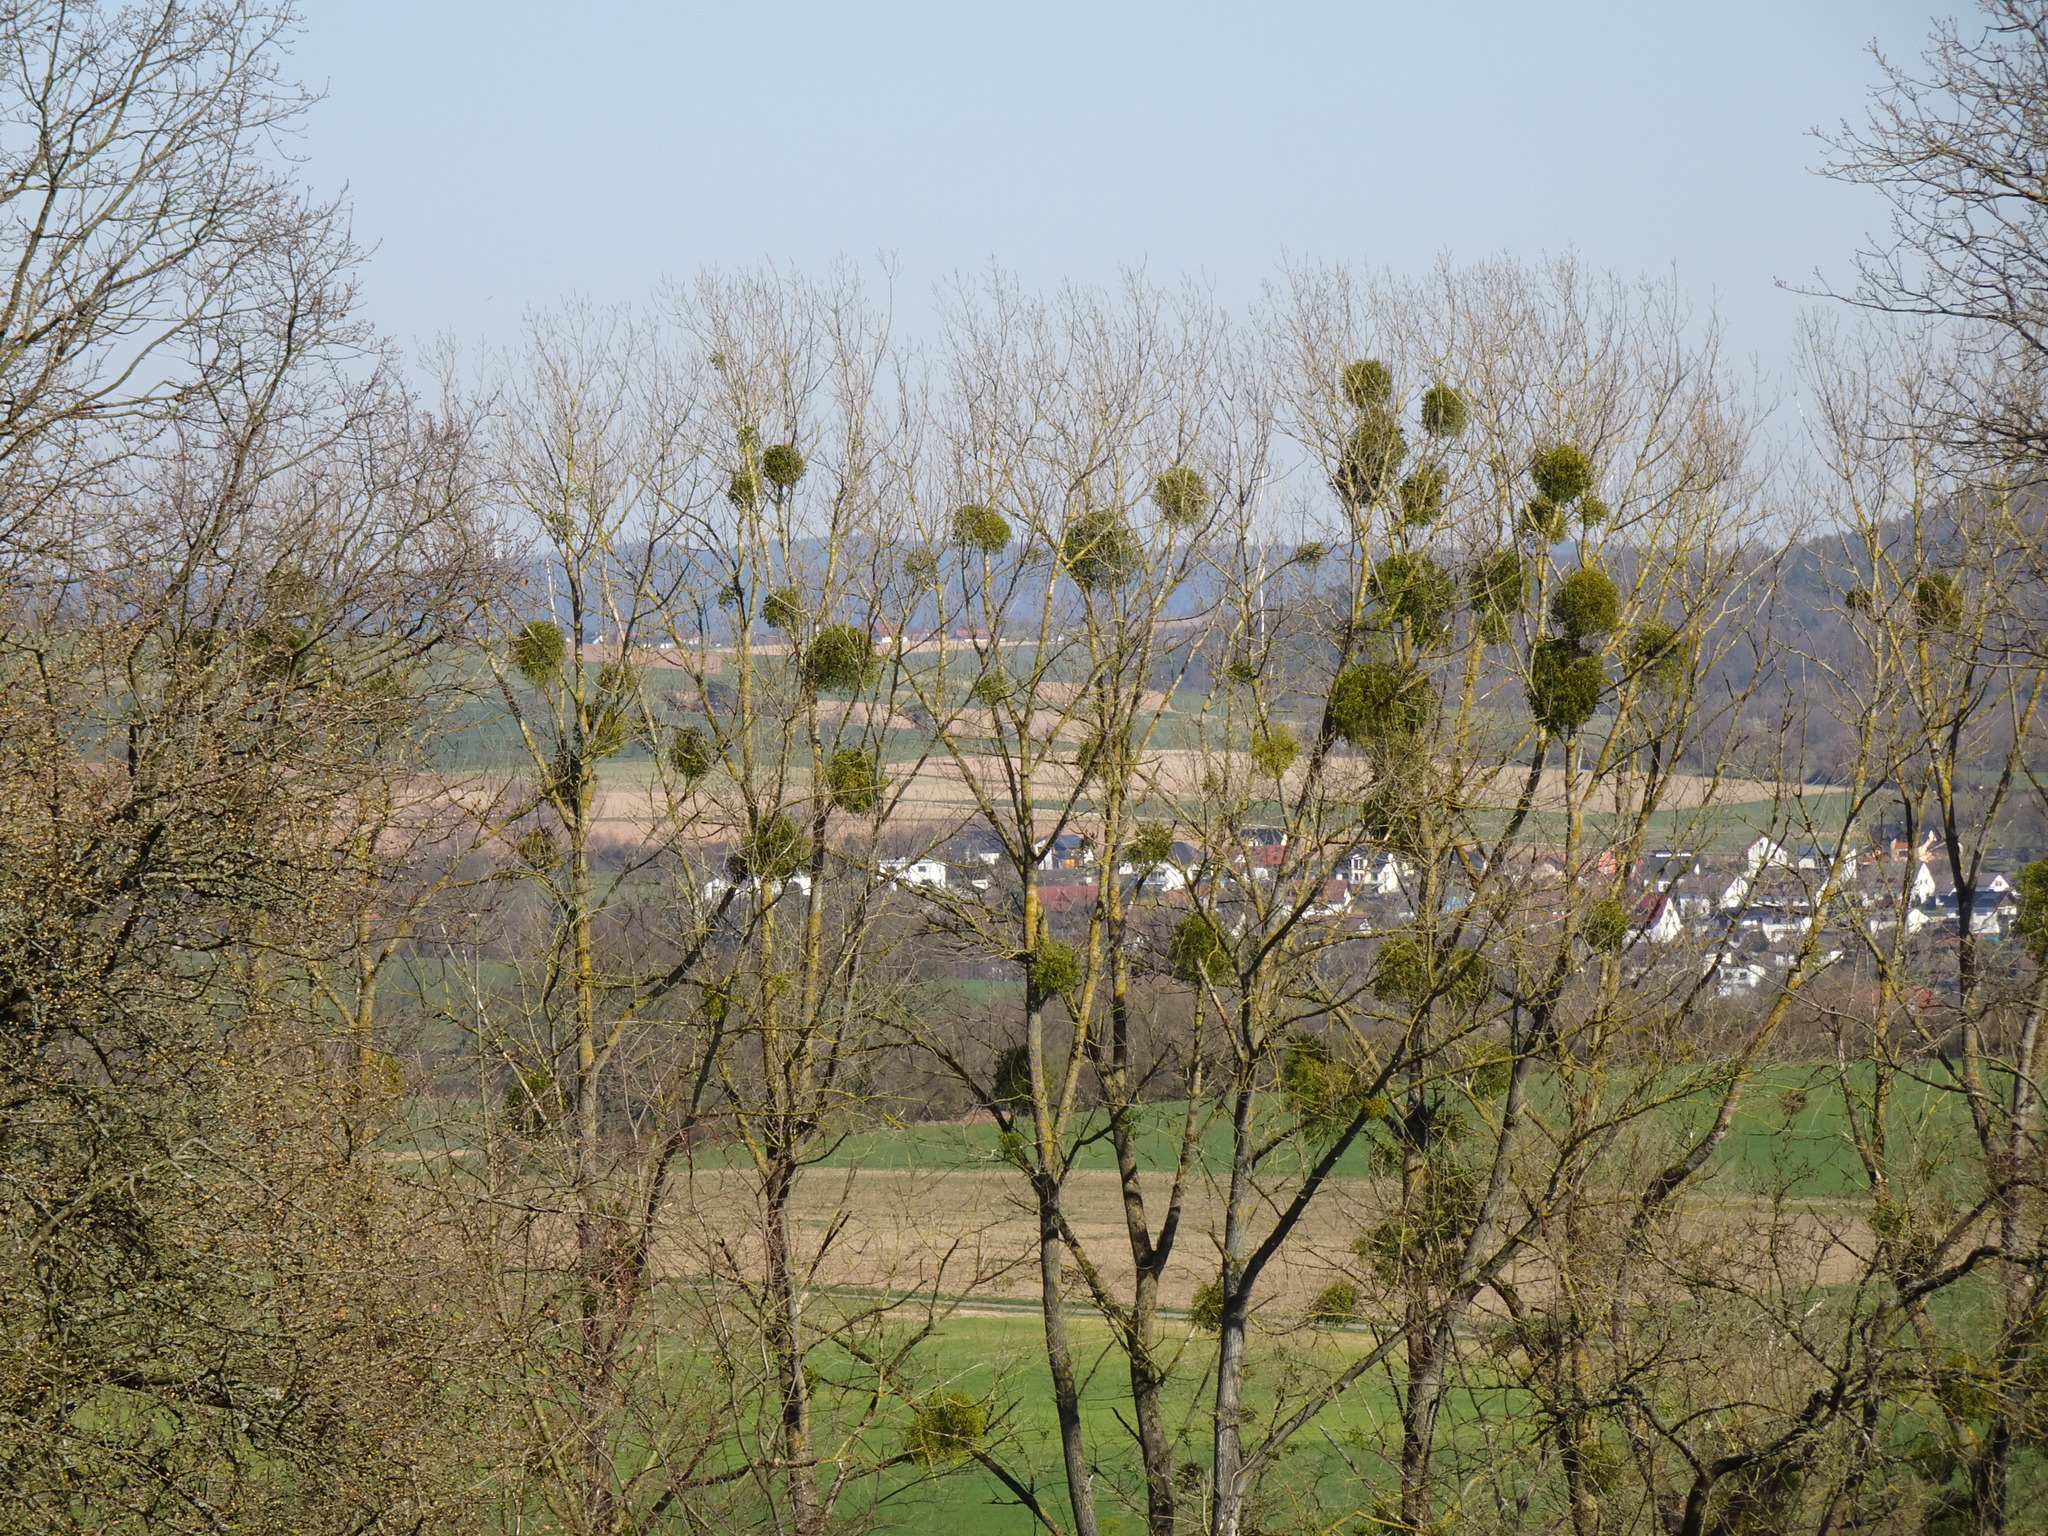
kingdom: Plantae
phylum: Tracheophyta
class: Magnoliopsida
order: Santalales
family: Viscaceae
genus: Viscum
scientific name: Viscum album
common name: Mistletoe
